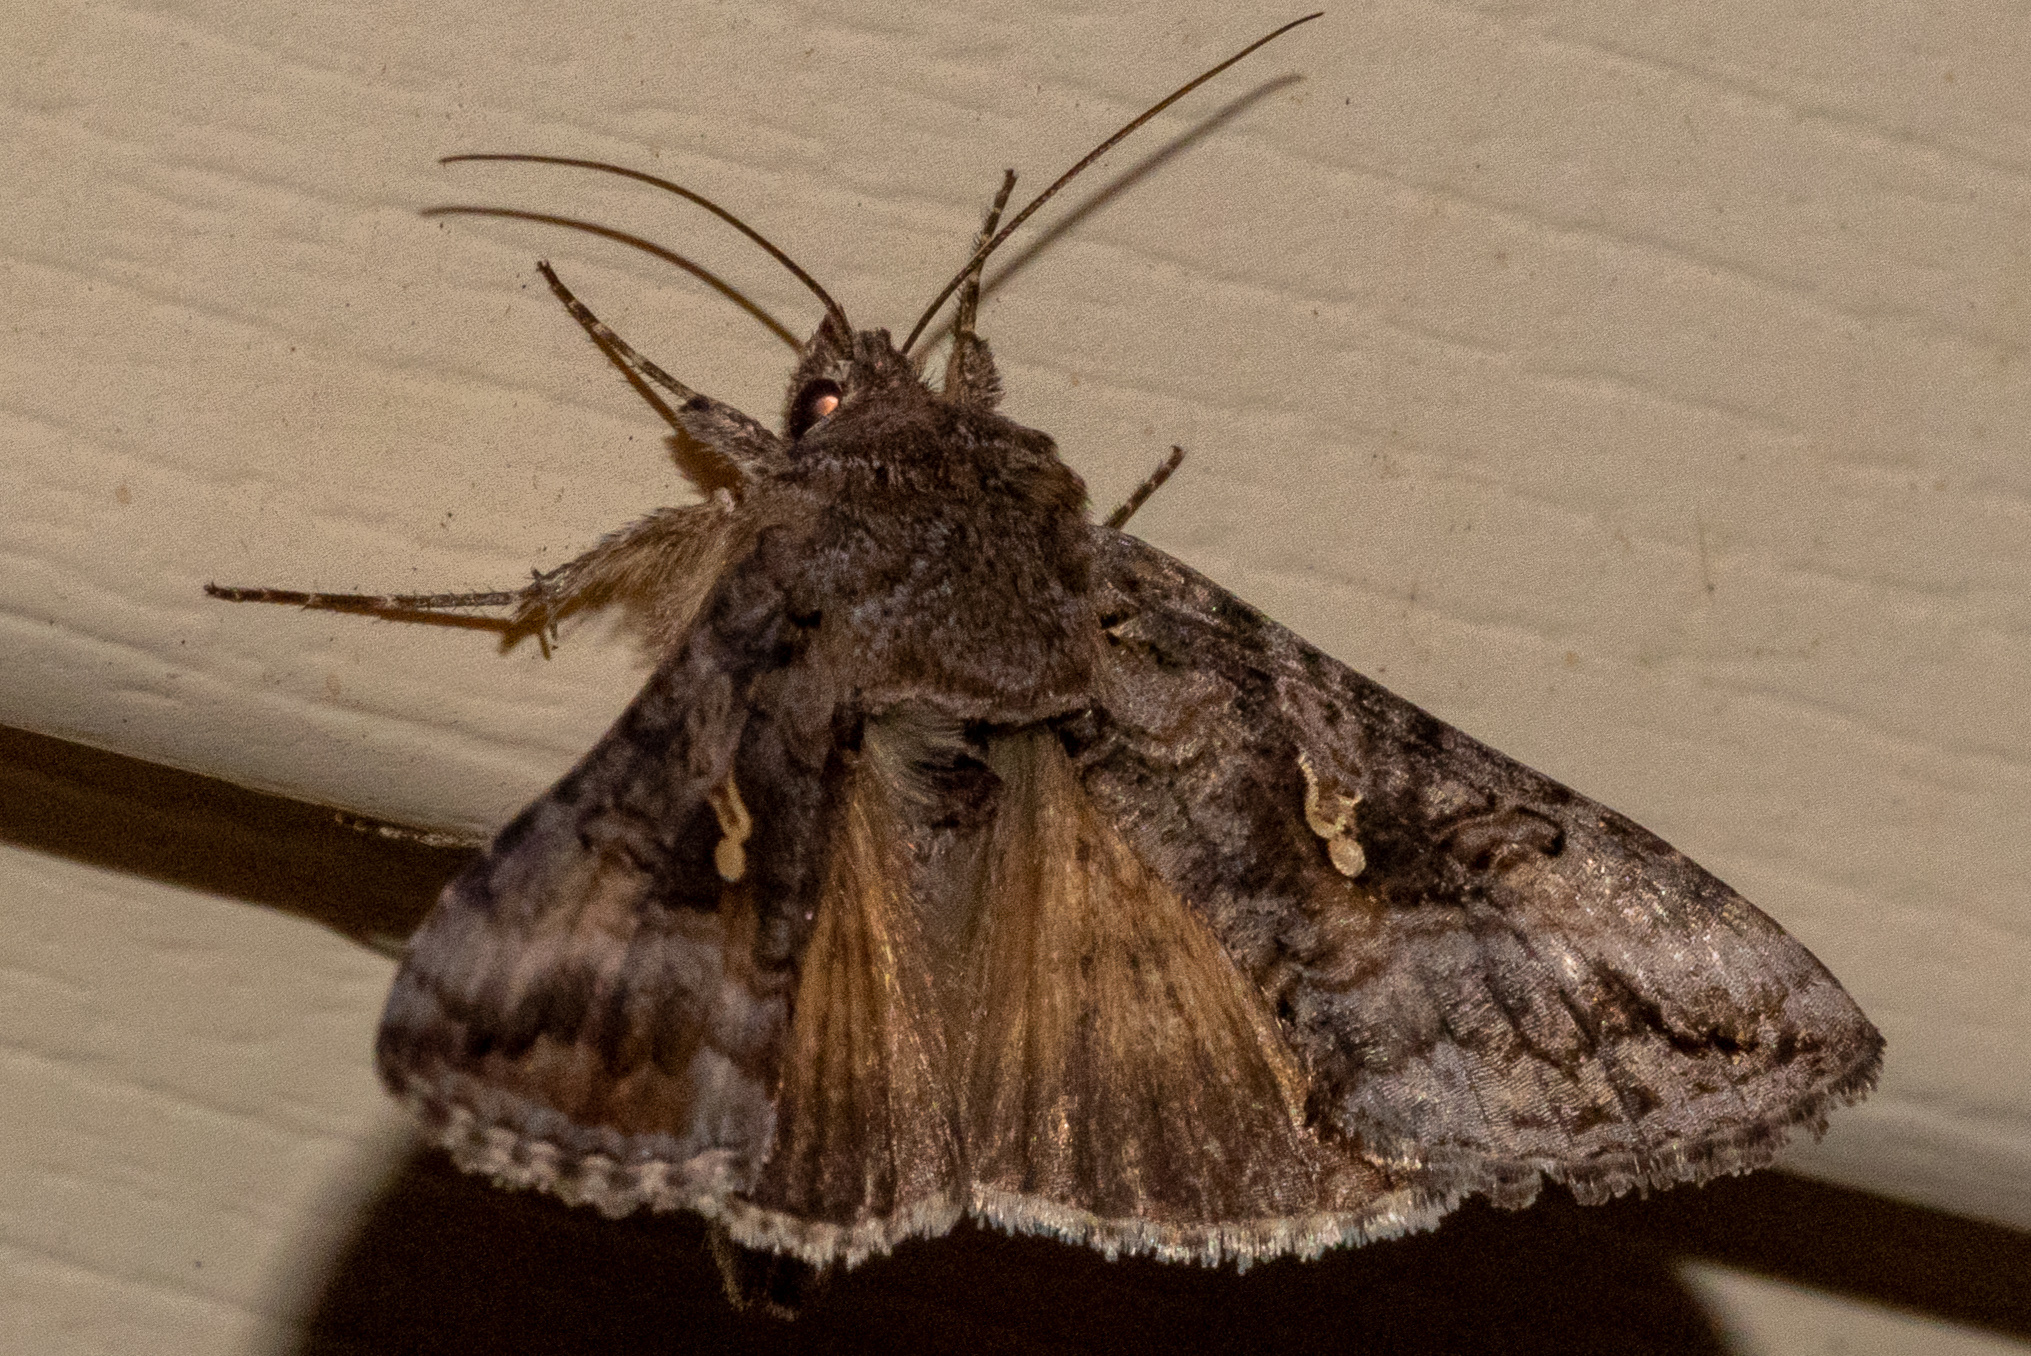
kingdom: Animalia
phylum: Arthropoda
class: Insecta
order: Lepidoptera
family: Noctuidae
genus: Rachiplusia
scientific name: Rachiplusia ou
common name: Gray looper moth
